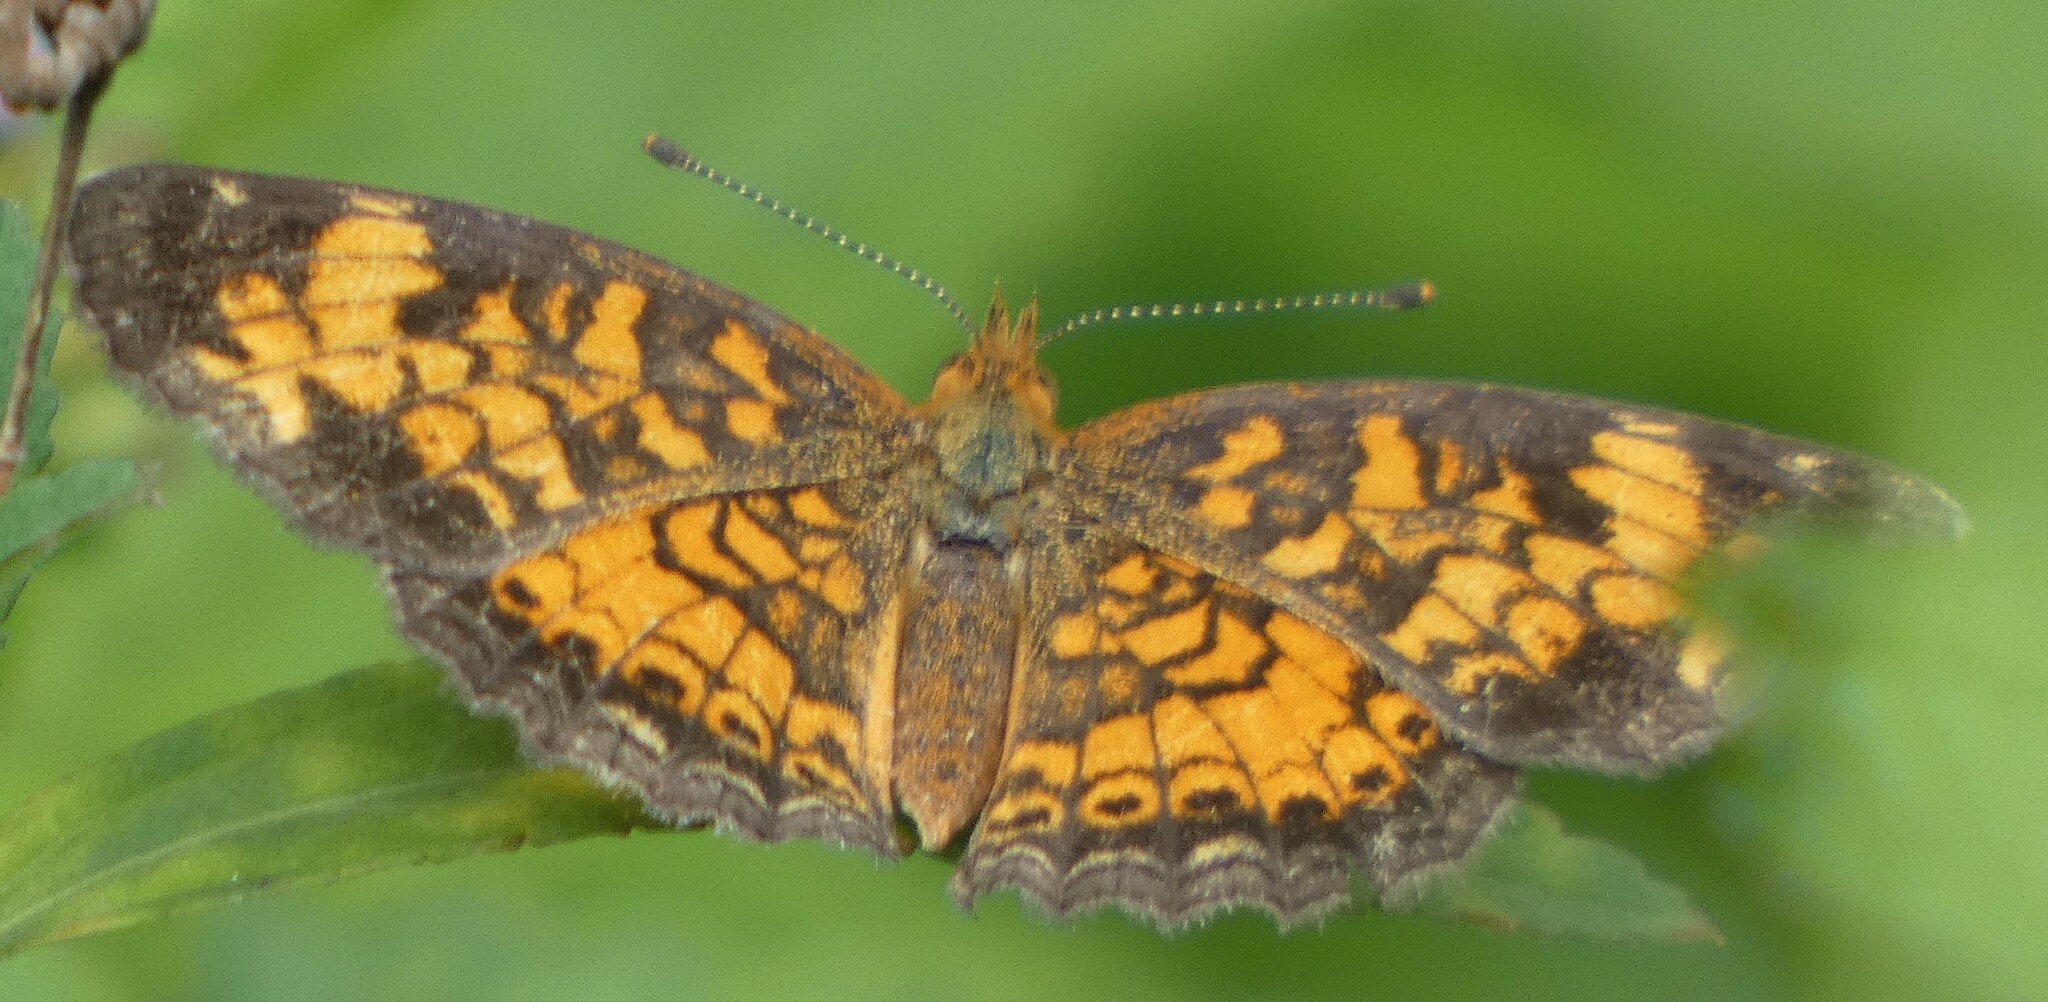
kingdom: Animalia
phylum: Arthropoda
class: Insecta
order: Lepidoptera
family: Nymphalidae
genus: Phyciodes
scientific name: Phyciodes tharos
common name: Pearl crescent
